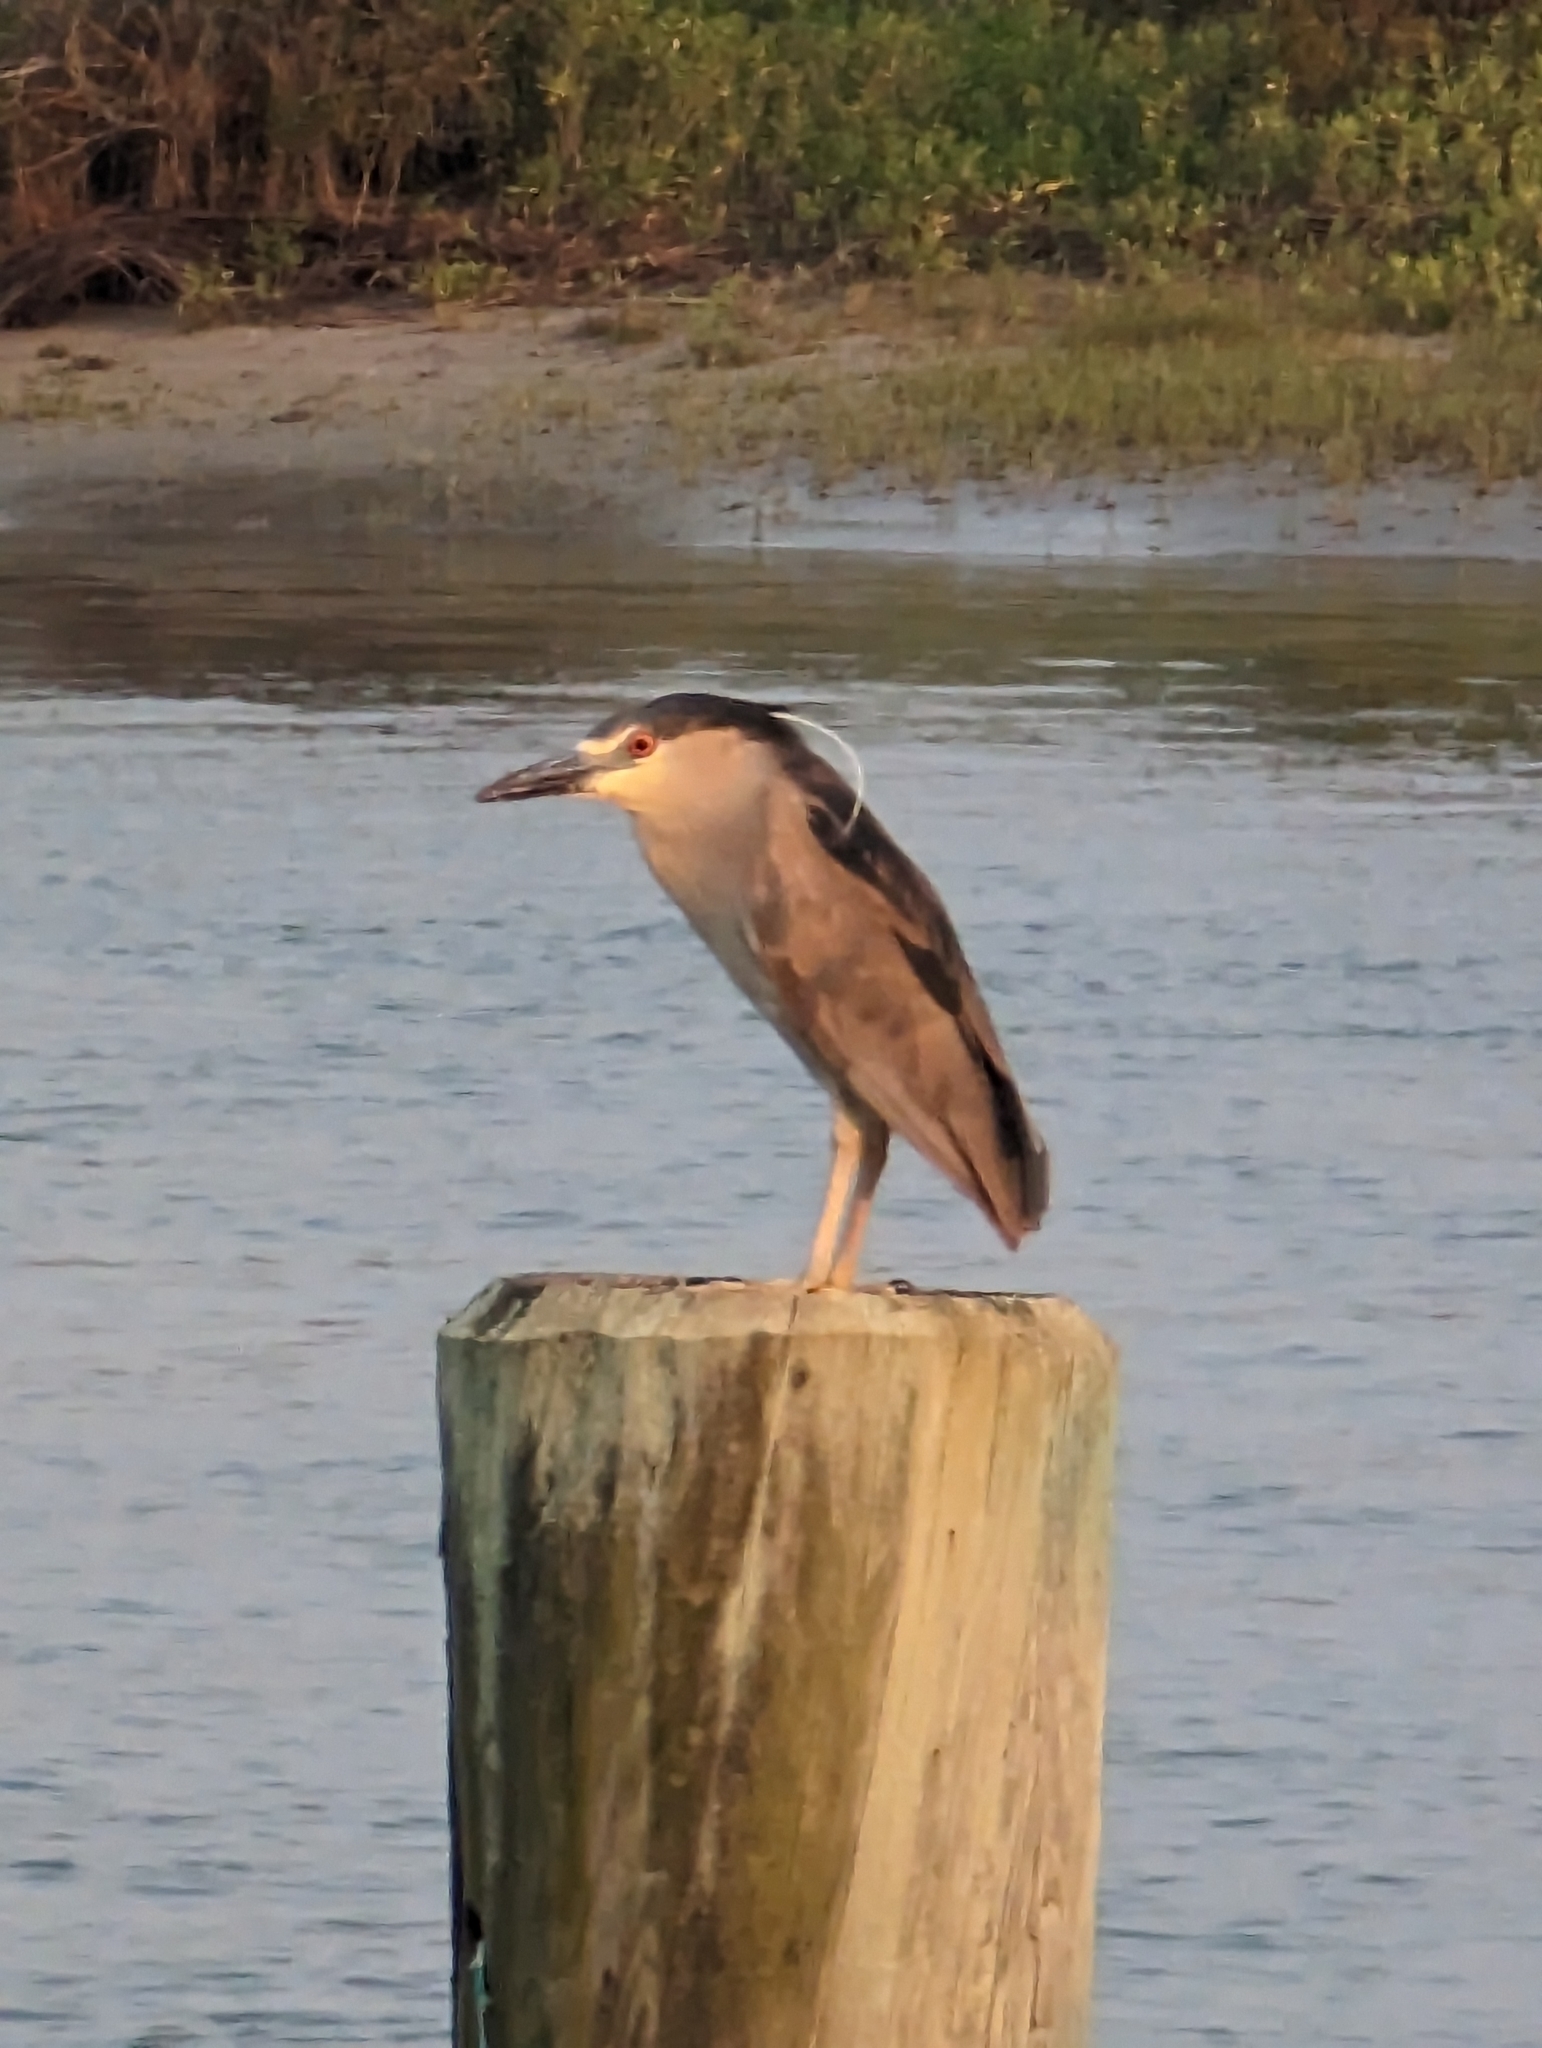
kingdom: Animalia
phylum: Chordata
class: Aves
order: Pelecaniformes
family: Ardeidae
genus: Nycticorax
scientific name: Nycticorax nycticorax
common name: Black-crowned night heron
